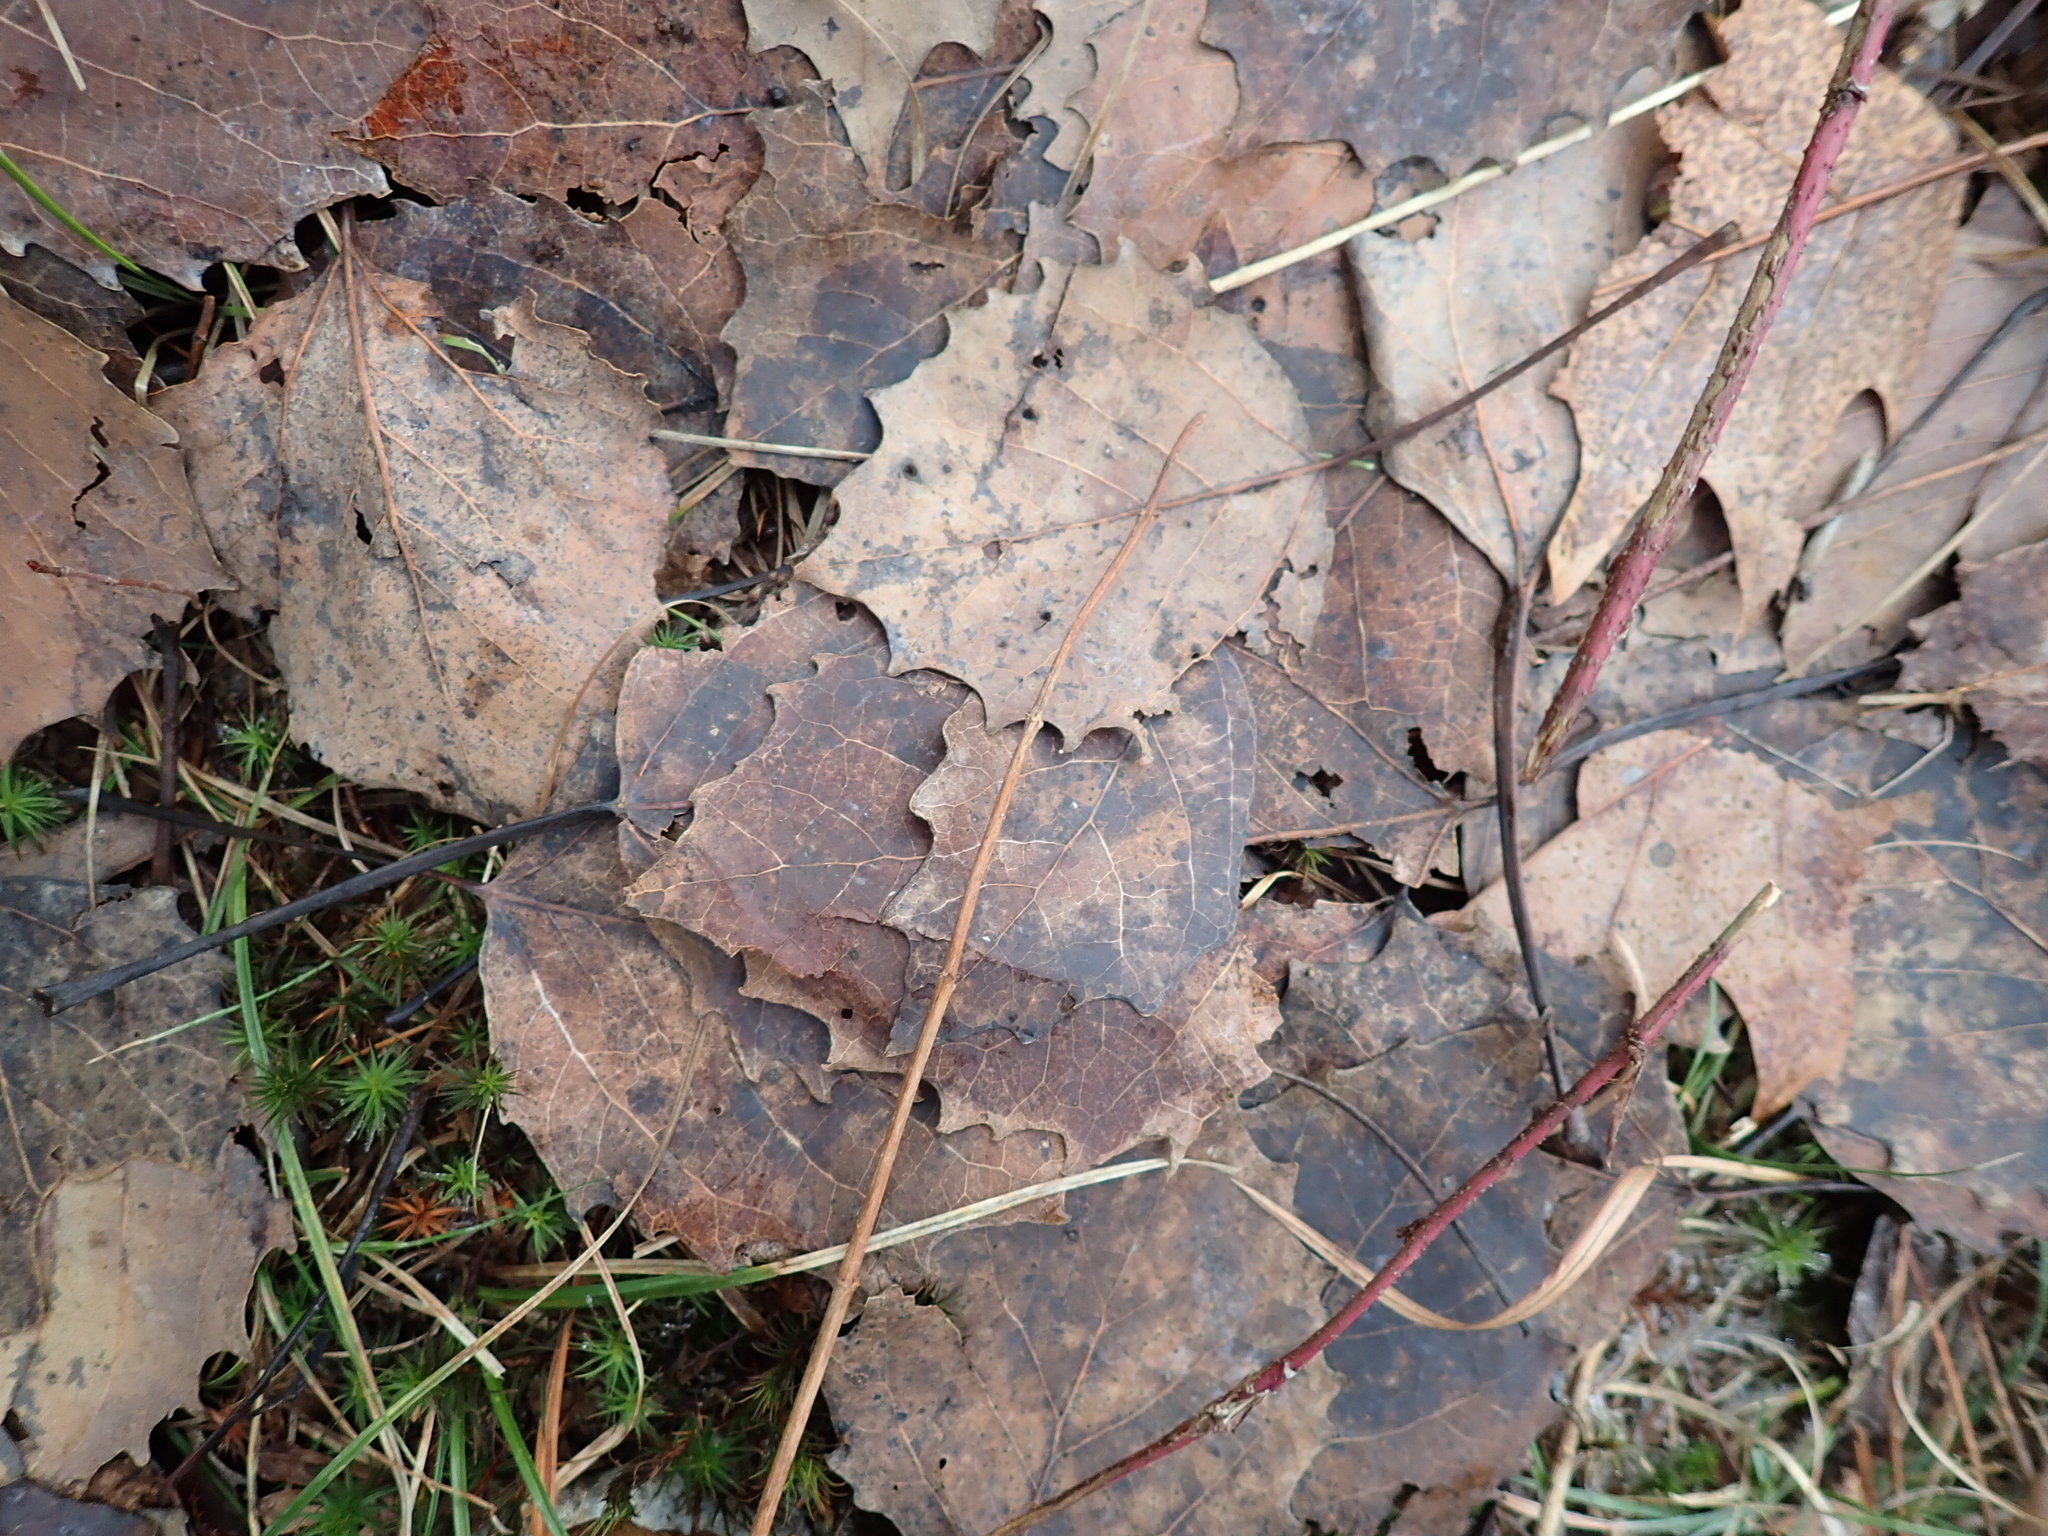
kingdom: Plantae
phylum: Tracheophyta
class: Magnoliopsida
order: Malpighiales
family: Salicaceae
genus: Populus
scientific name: Populus grandidentata
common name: Bigtooth aspen
